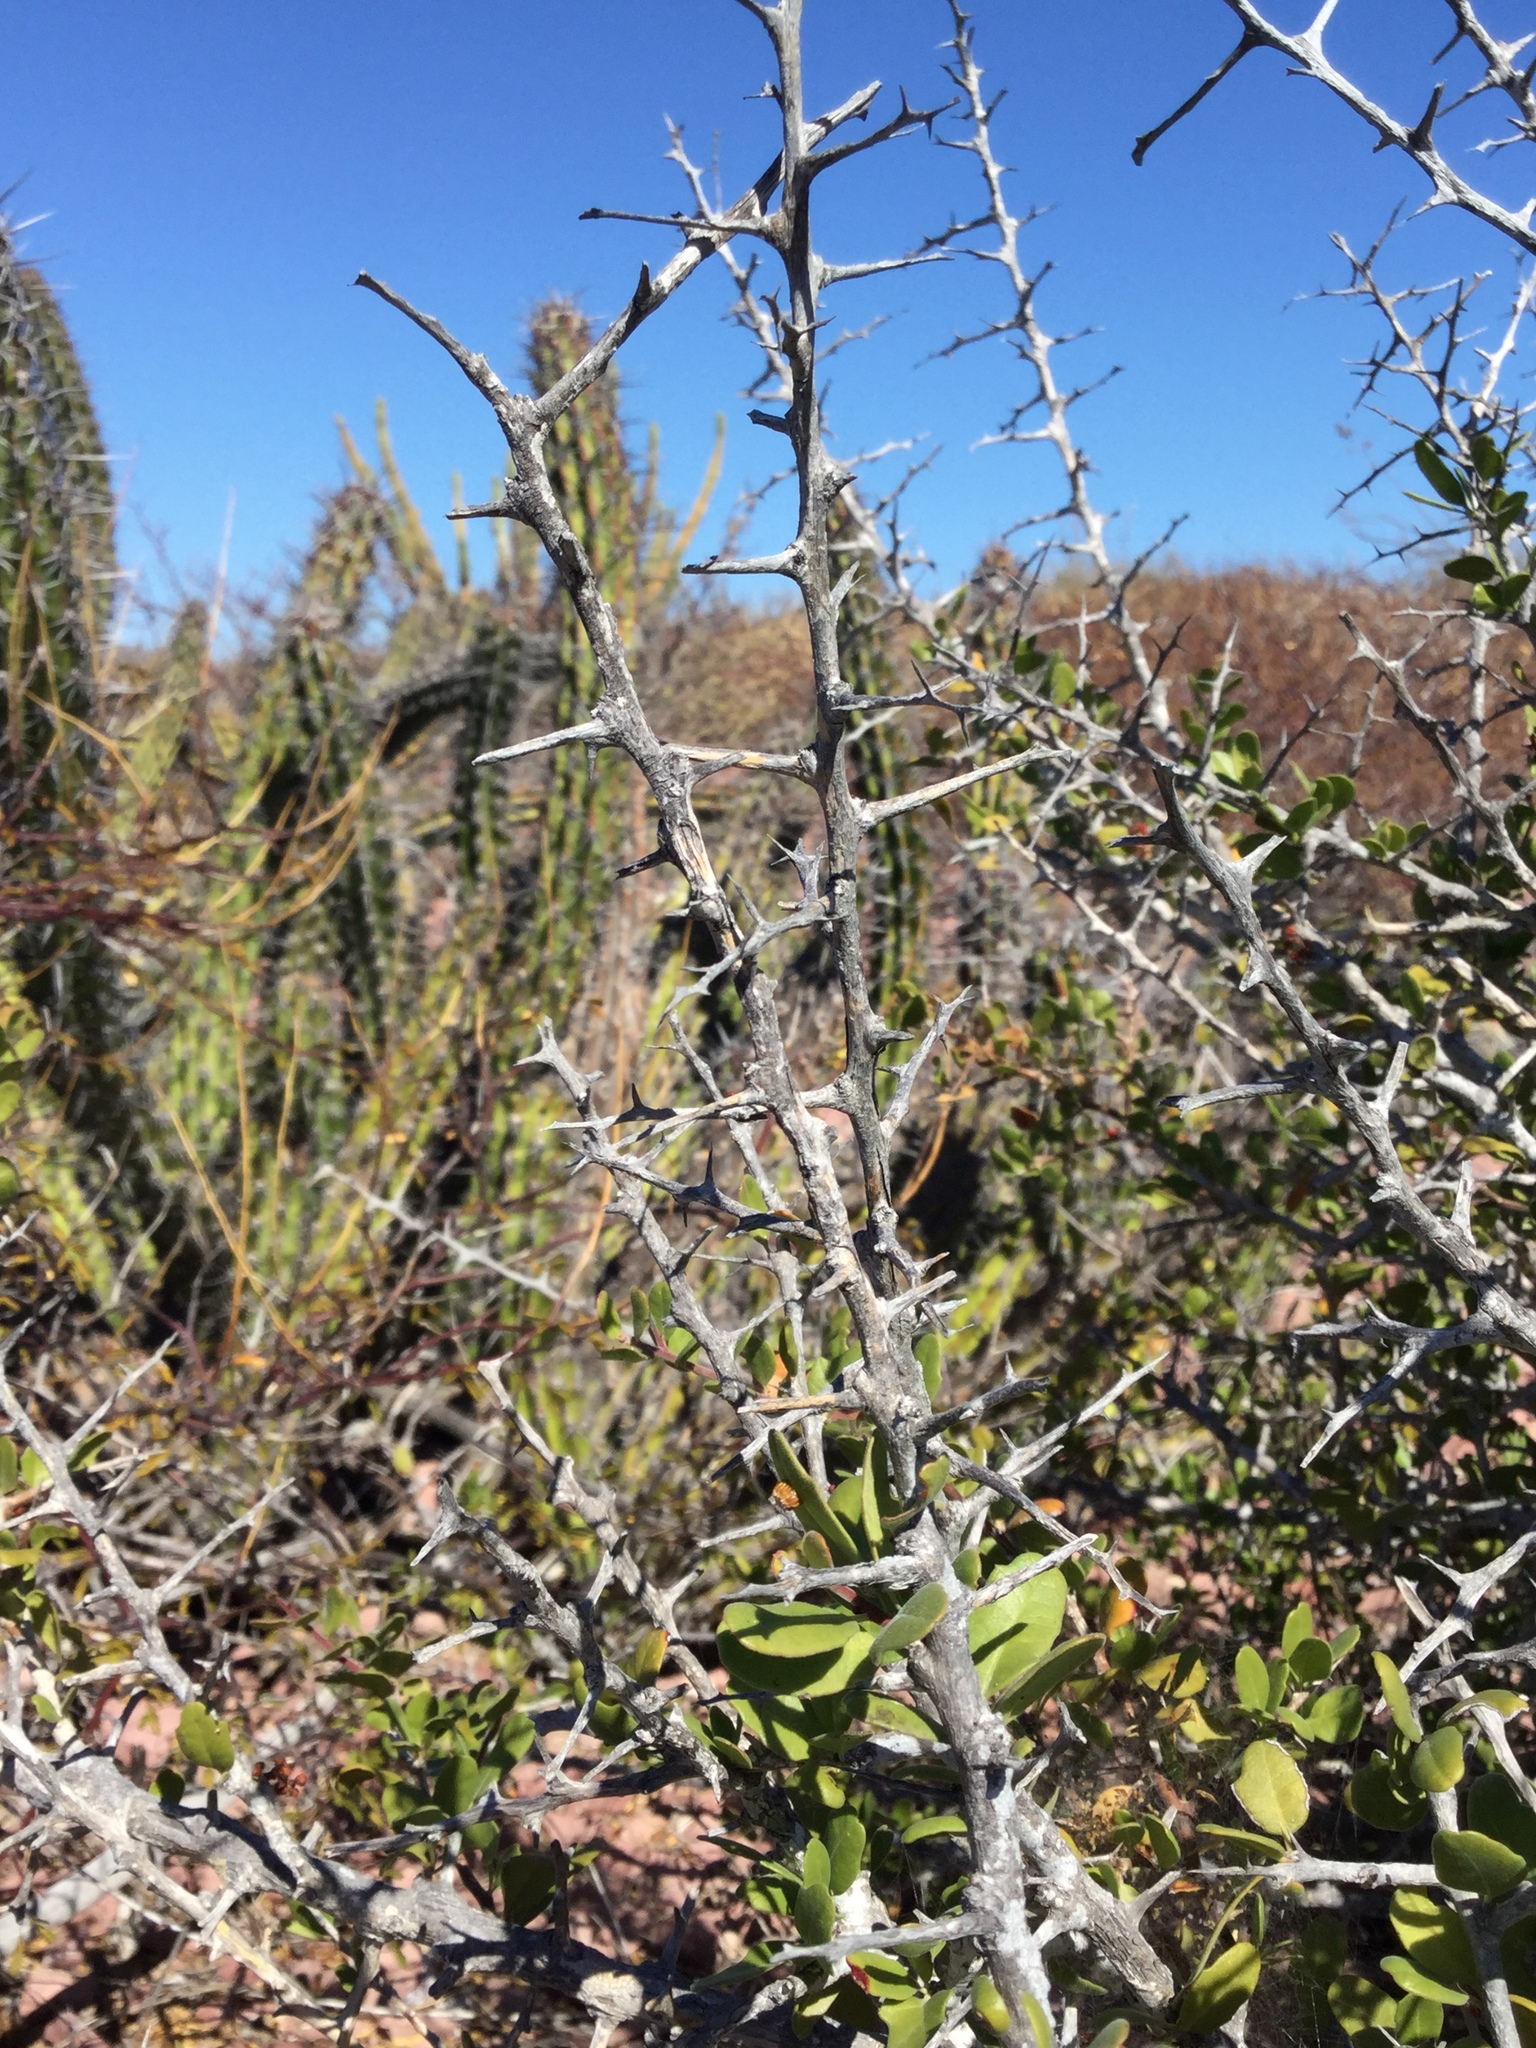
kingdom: Plantae
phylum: Tracheophyta
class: Magnoliopsida
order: Sapindales
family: Simaroubaceae
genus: Castela
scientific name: Castela peninsularis
